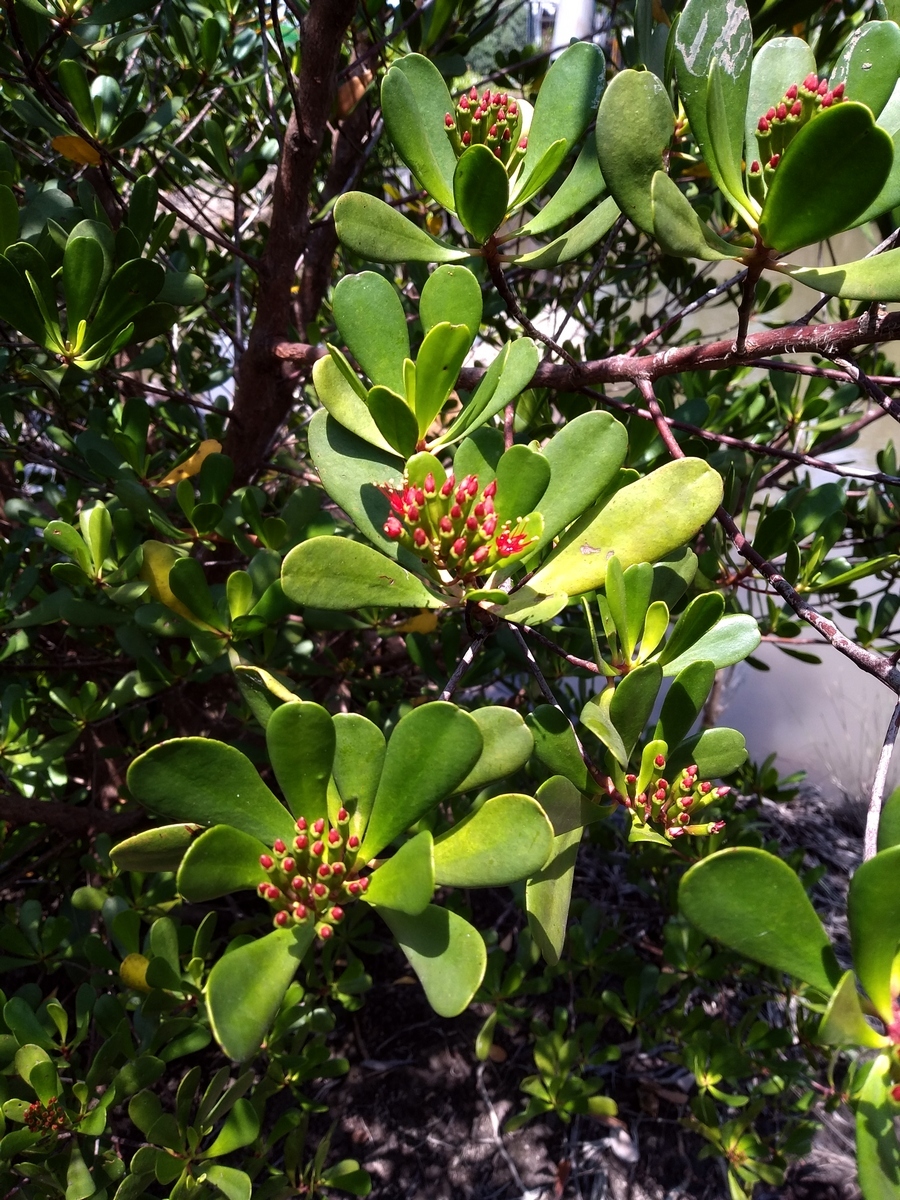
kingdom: Plantae
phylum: Tracheophyta
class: Magnoliopsida
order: Myrtales
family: Combretaceae
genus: Lumnitzera
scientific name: Lumnitzera littorea
